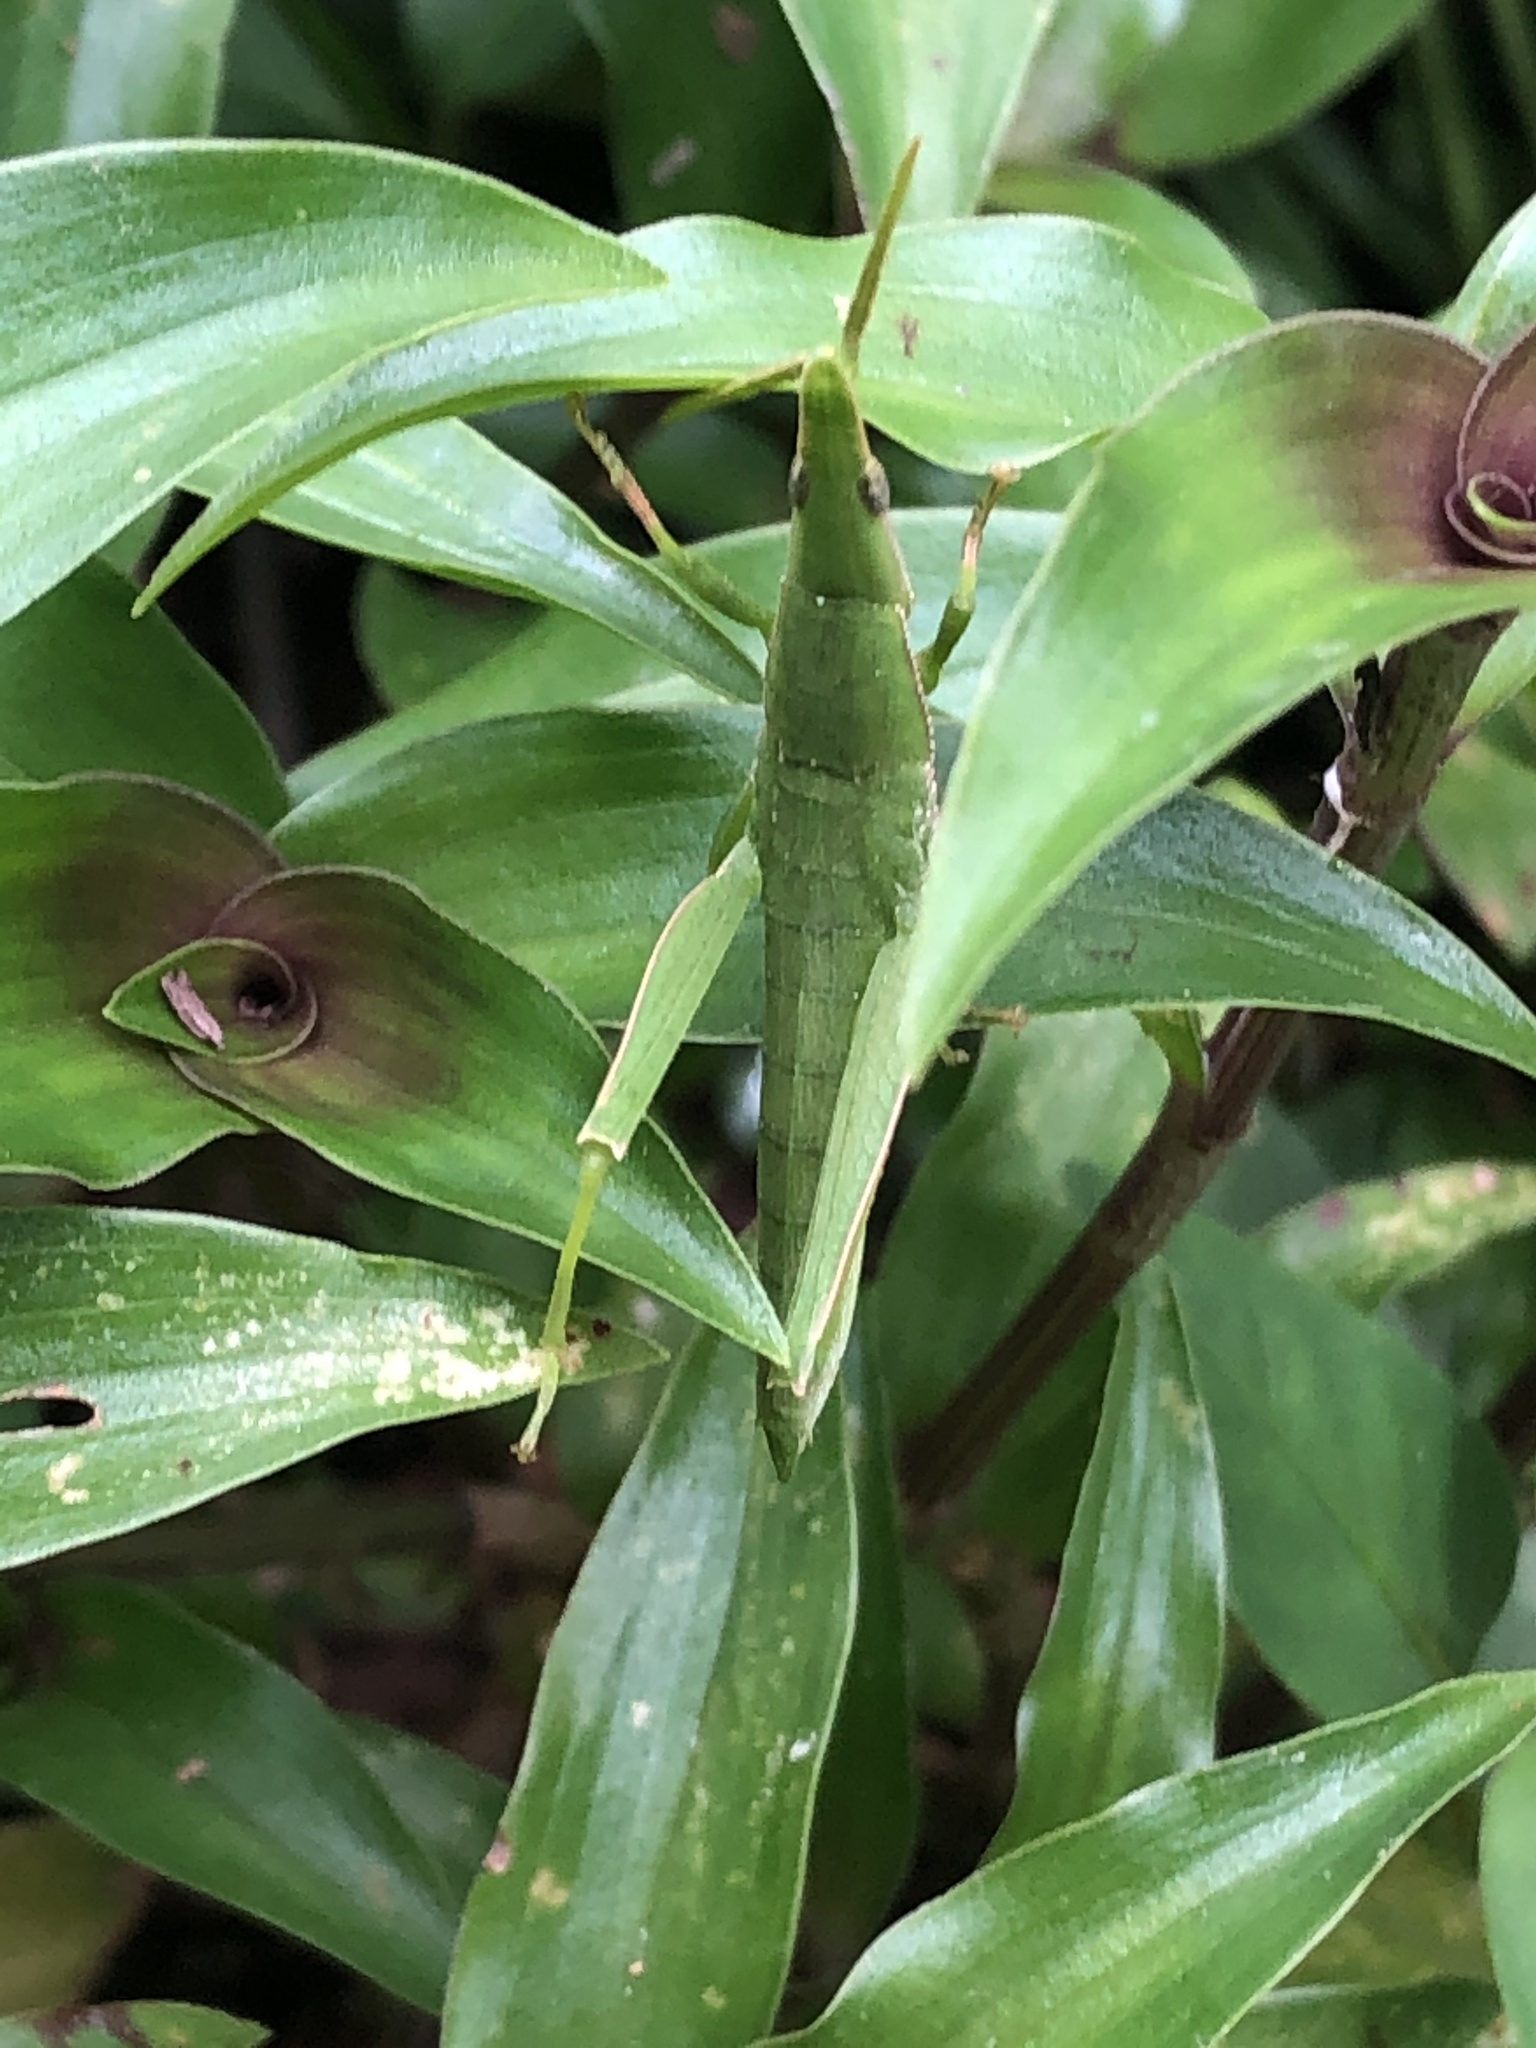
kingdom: Animalia
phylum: Arthropoda
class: Insecta
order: Orthoptera
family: Pyrgomorphidae
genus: Omura
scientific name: Omura congrua
